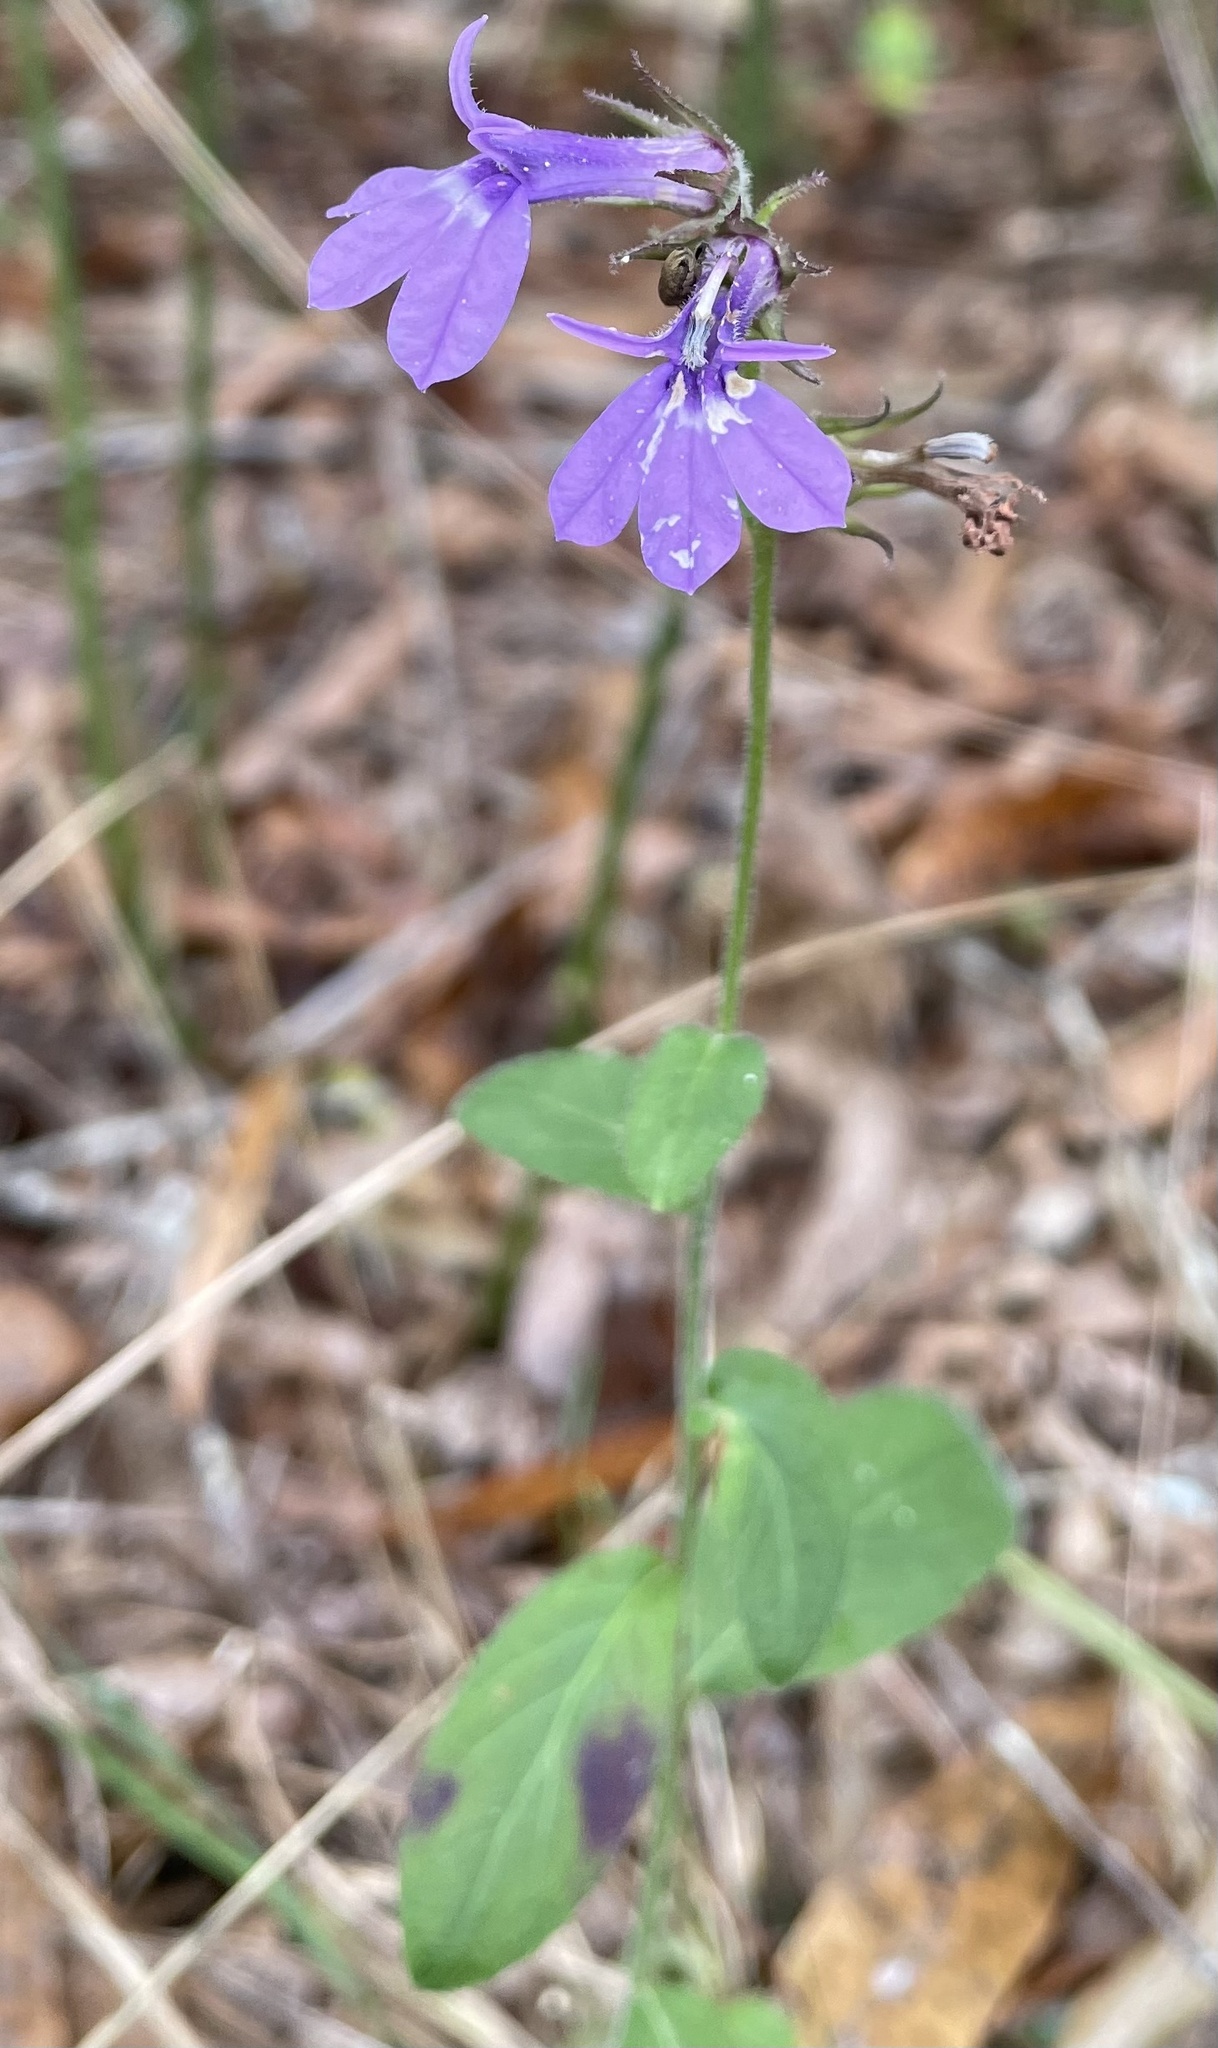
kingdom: Plantae
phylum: Tracheophyta
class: Magnoliopsida
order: Asterales
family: Campanulaceae
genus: Lobelia
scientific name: Lobelia puberula
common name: Purple dewdrop
